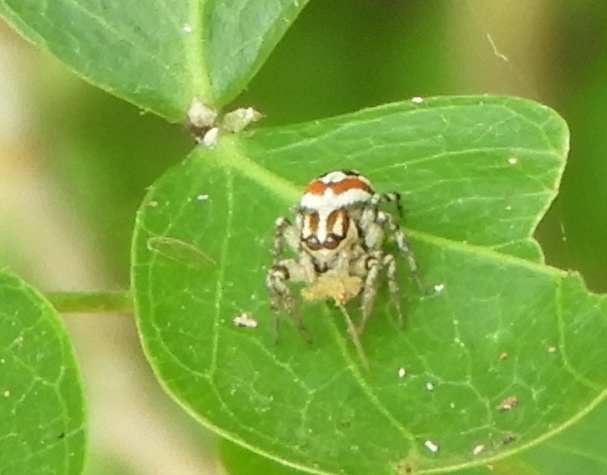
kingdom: Animalia
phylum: Arthropoda
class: Arachnida
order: Araneae
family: Salticidae
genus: Nycerella
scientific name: Nycerella delecta
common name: Jumping spiders
